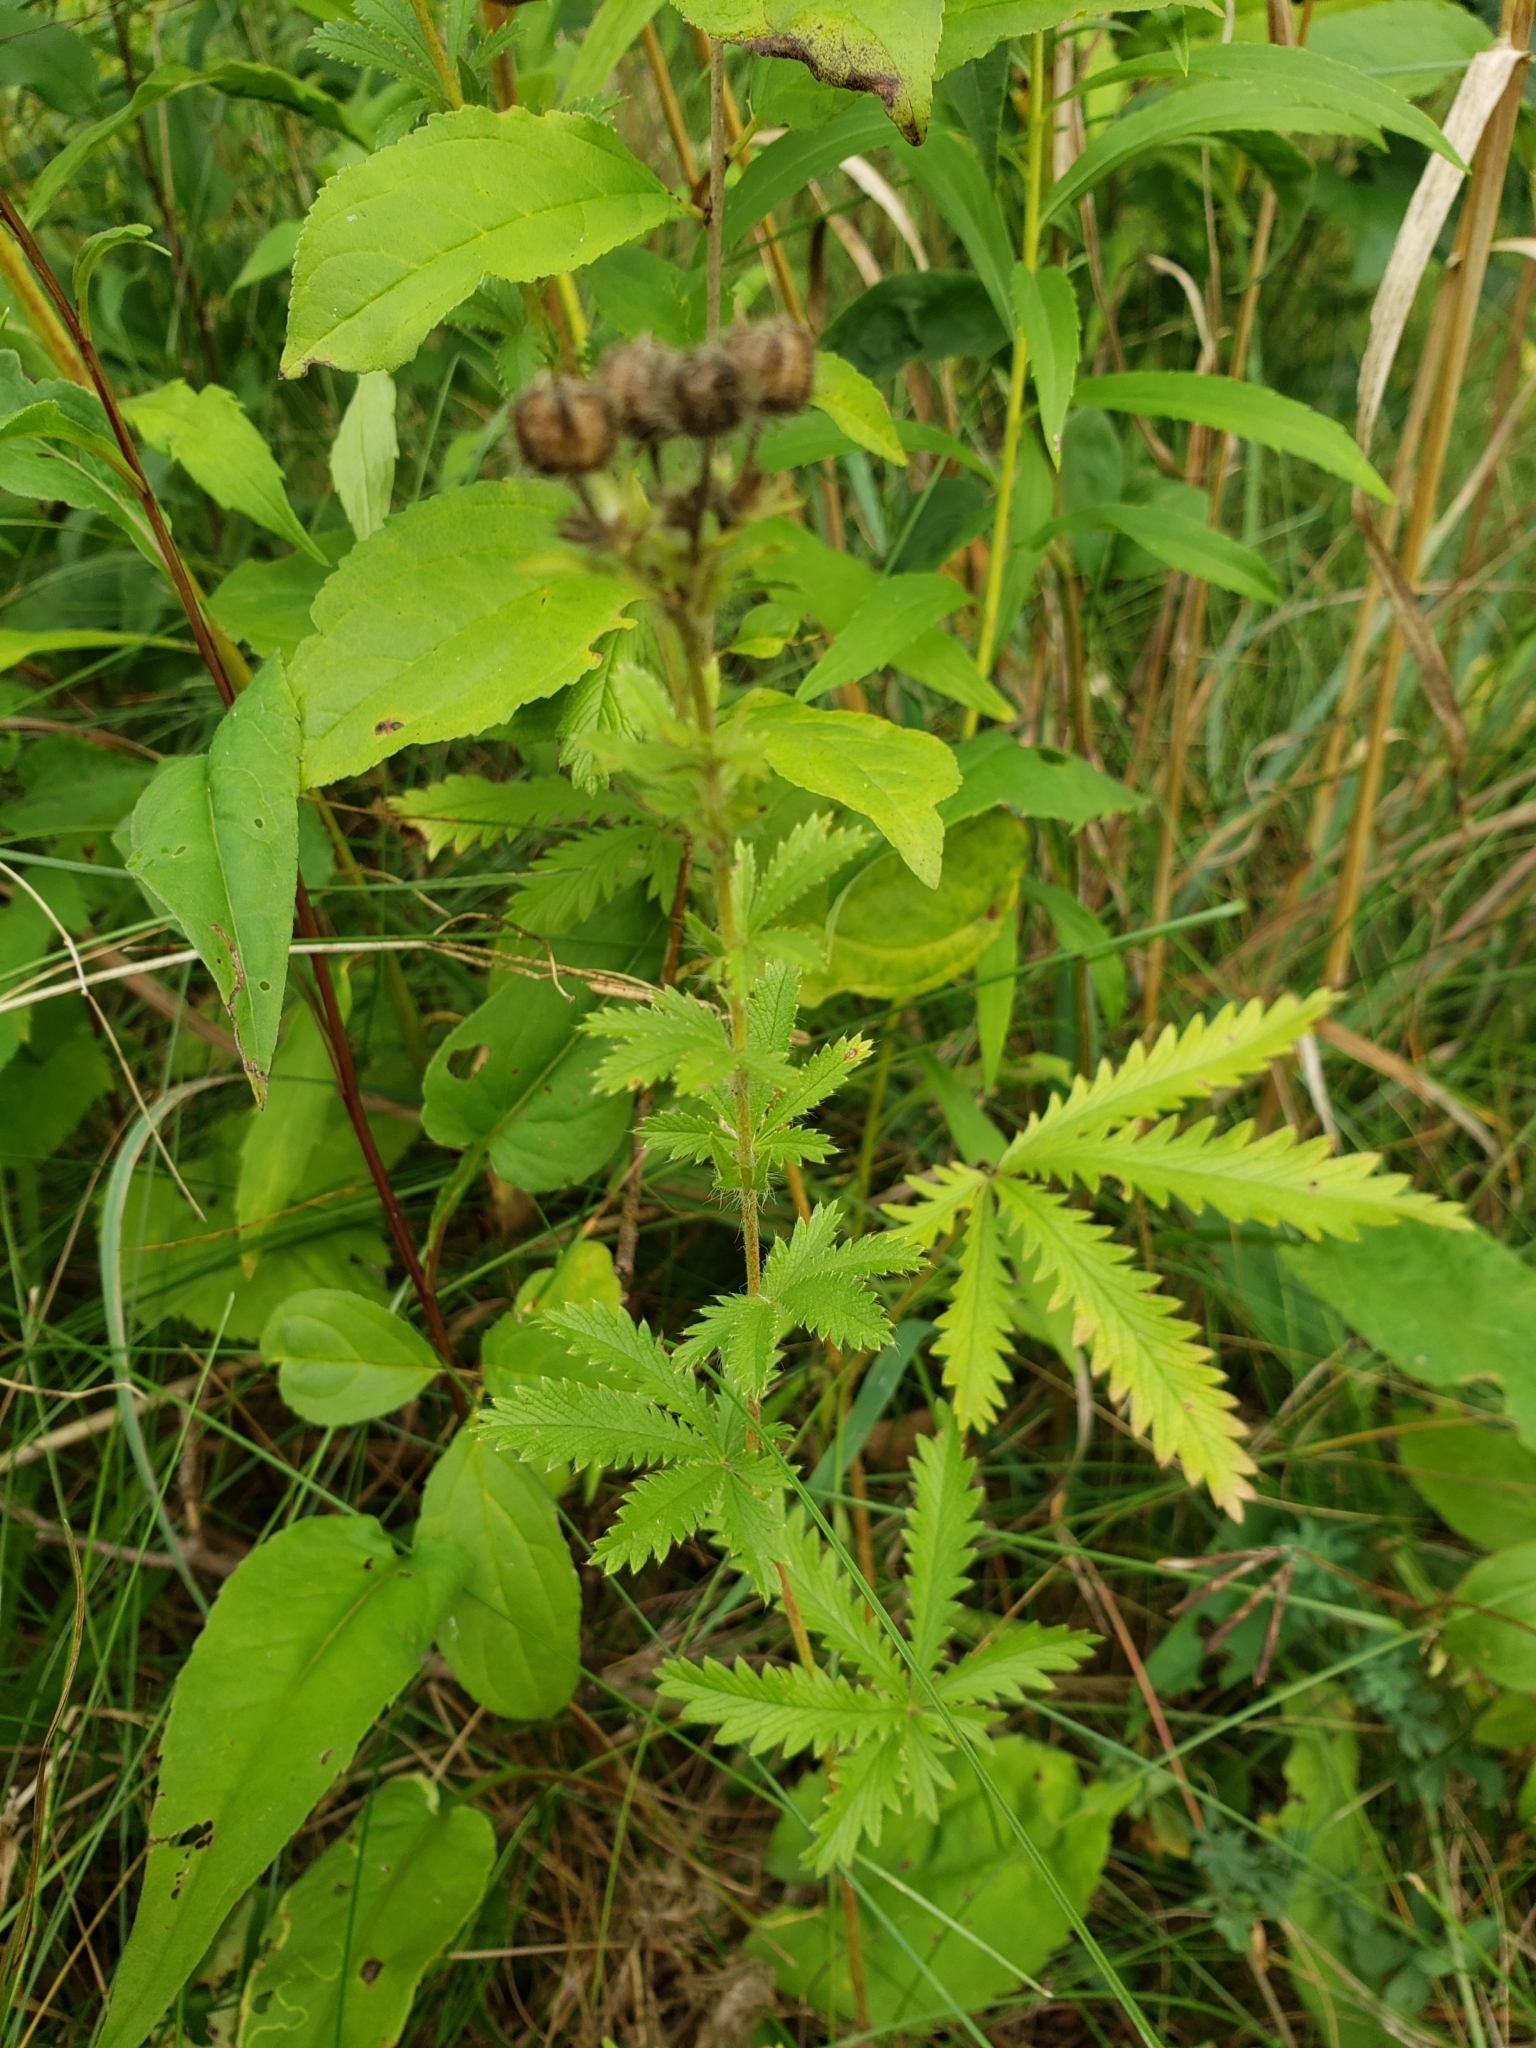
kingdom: Plantae
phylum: Tracheophyta
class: Magnoliopsida
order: Rosales
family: Rosaceae
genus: Potentilla
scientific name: Potentilla recta
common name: Sulphur cinquefoil
